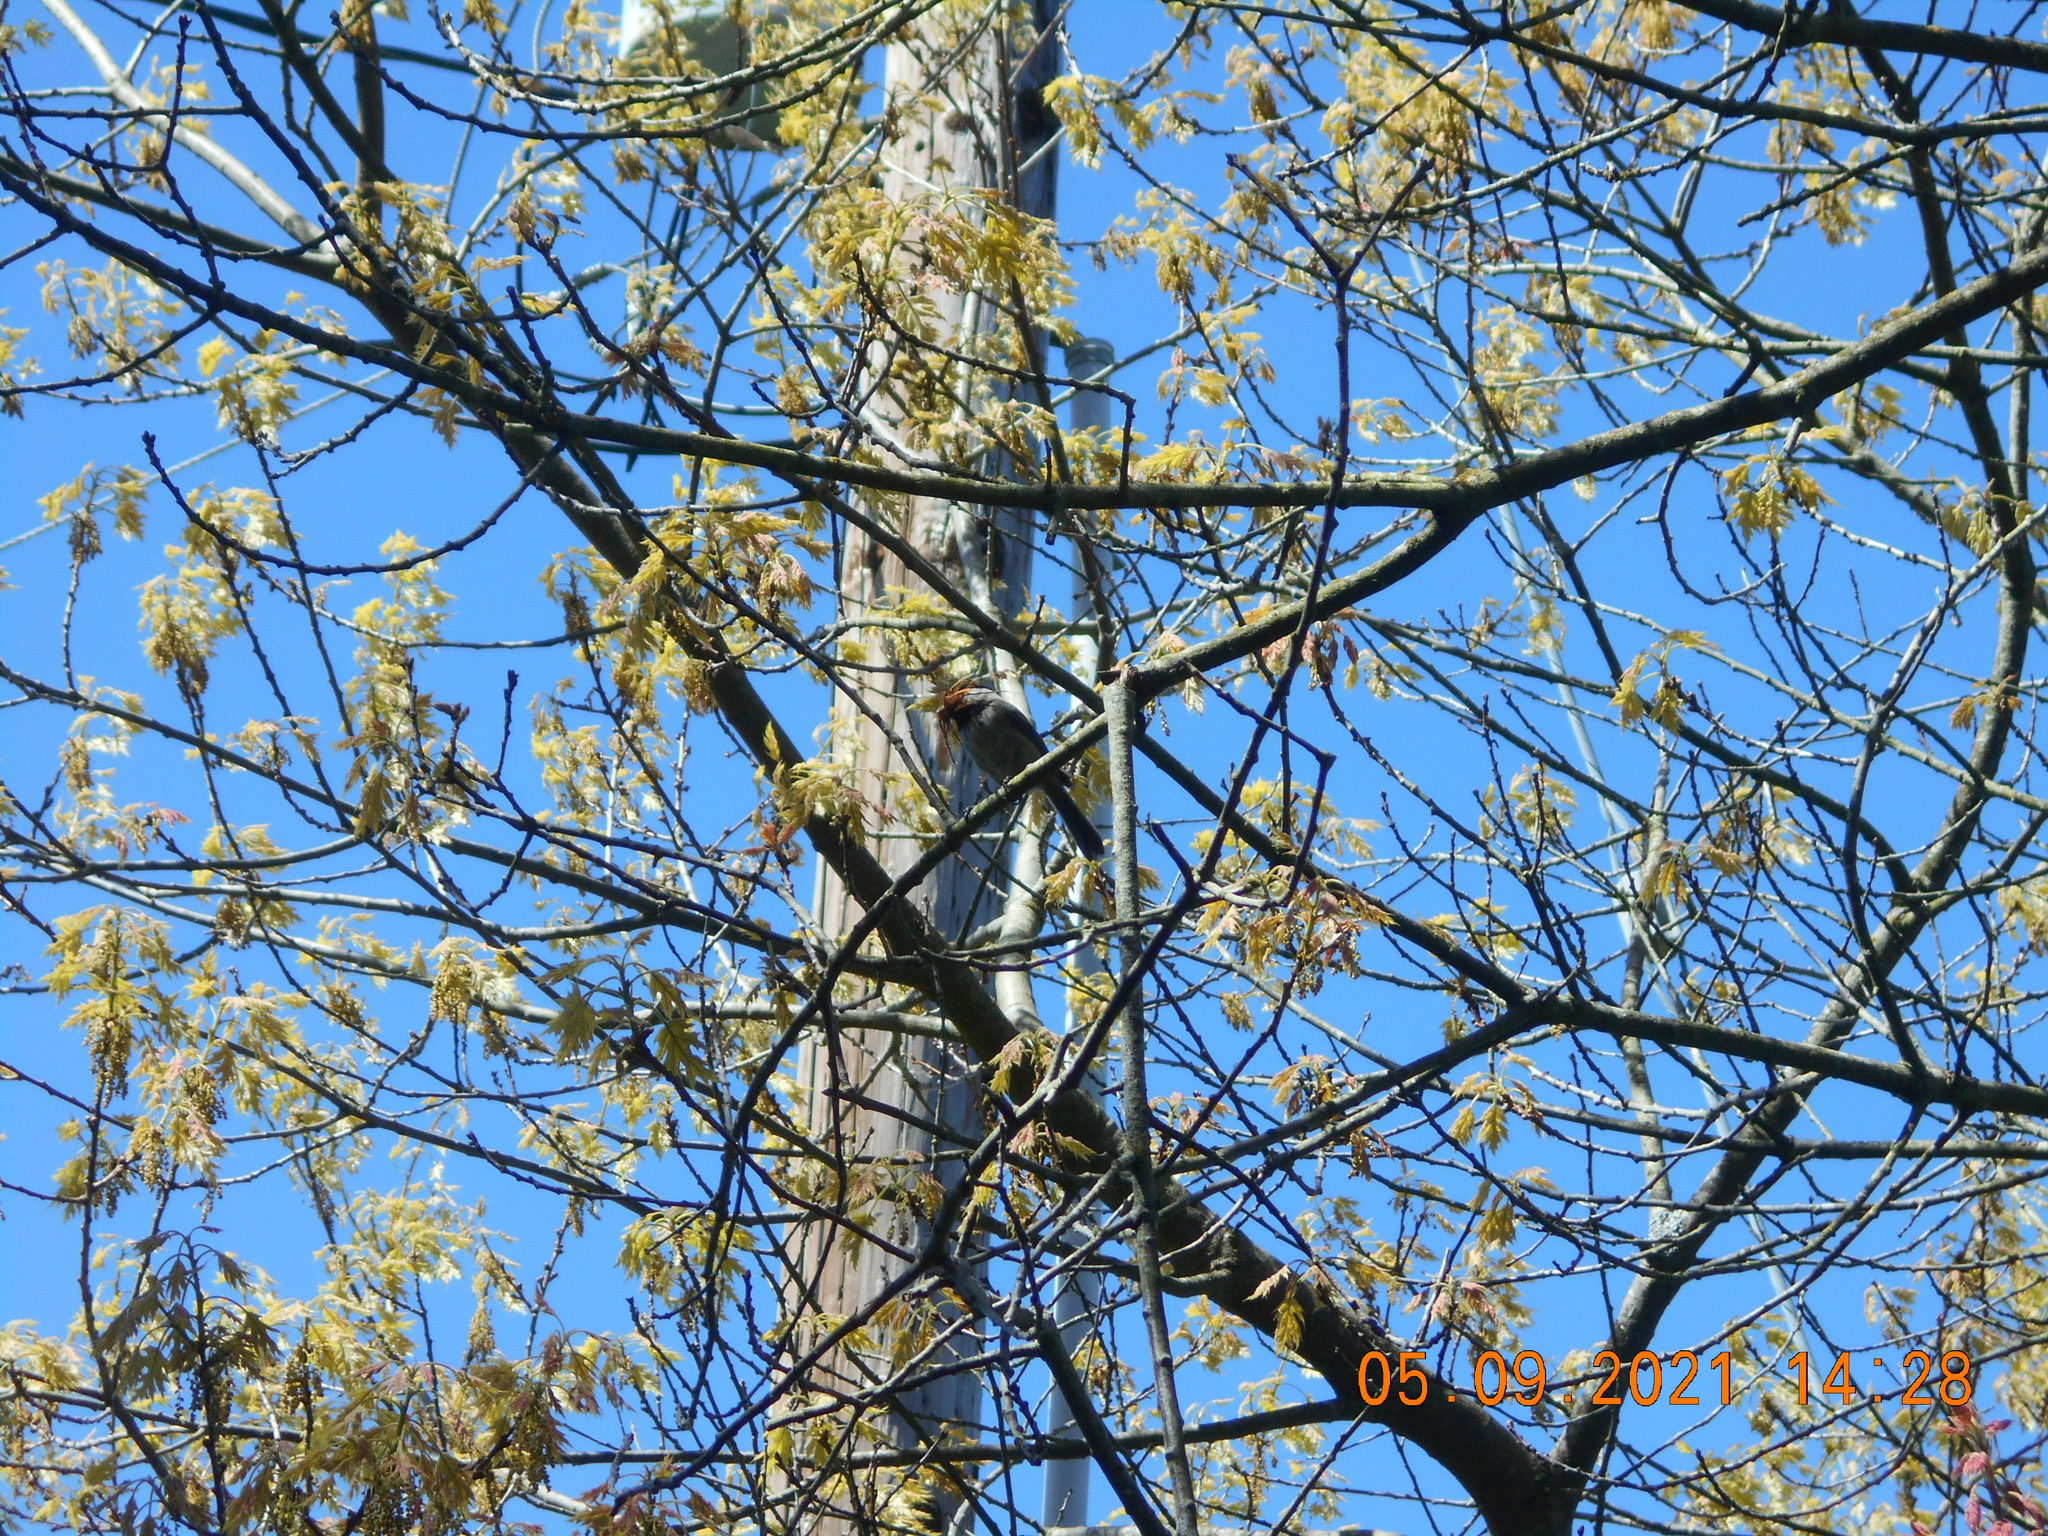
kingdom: Animalia
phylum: Chordata
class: Aves
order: Passeriformes
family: Paridae
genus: Poecile
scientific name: Poecile atricapillus
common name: Black-capped chickadee
